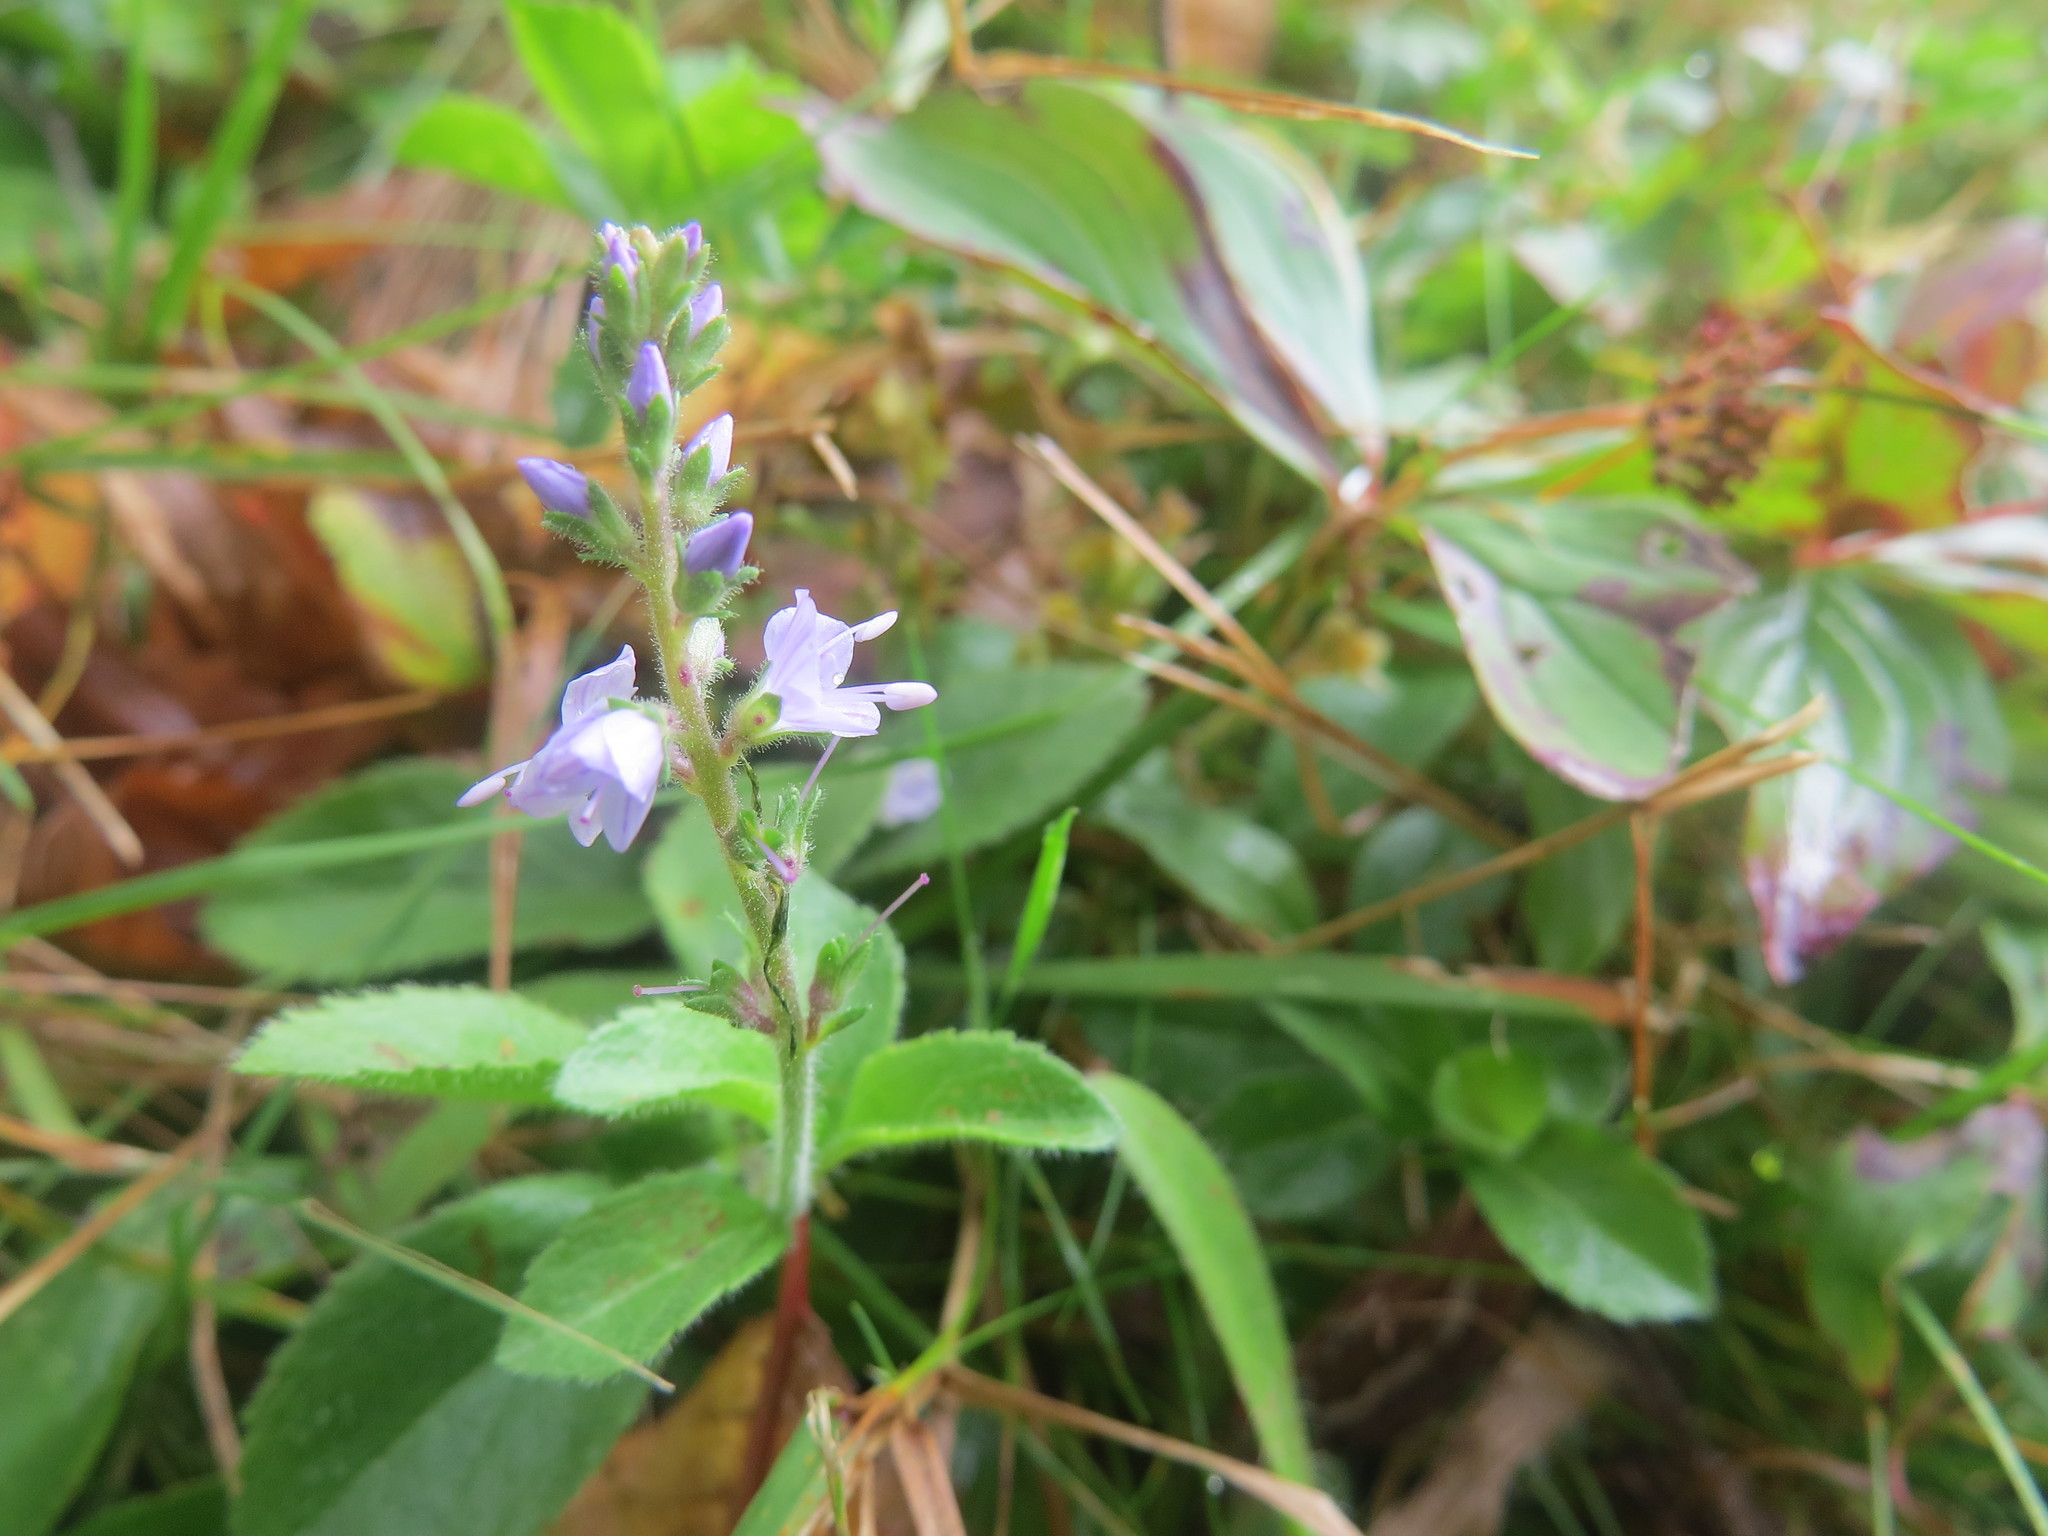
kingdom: Plantae
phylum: Tracheophyta
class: Magnoliopsida
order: Lamiales
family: Plantaginaceae
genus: Veronica
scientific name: Veronica officinalis
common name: Common speedwell
